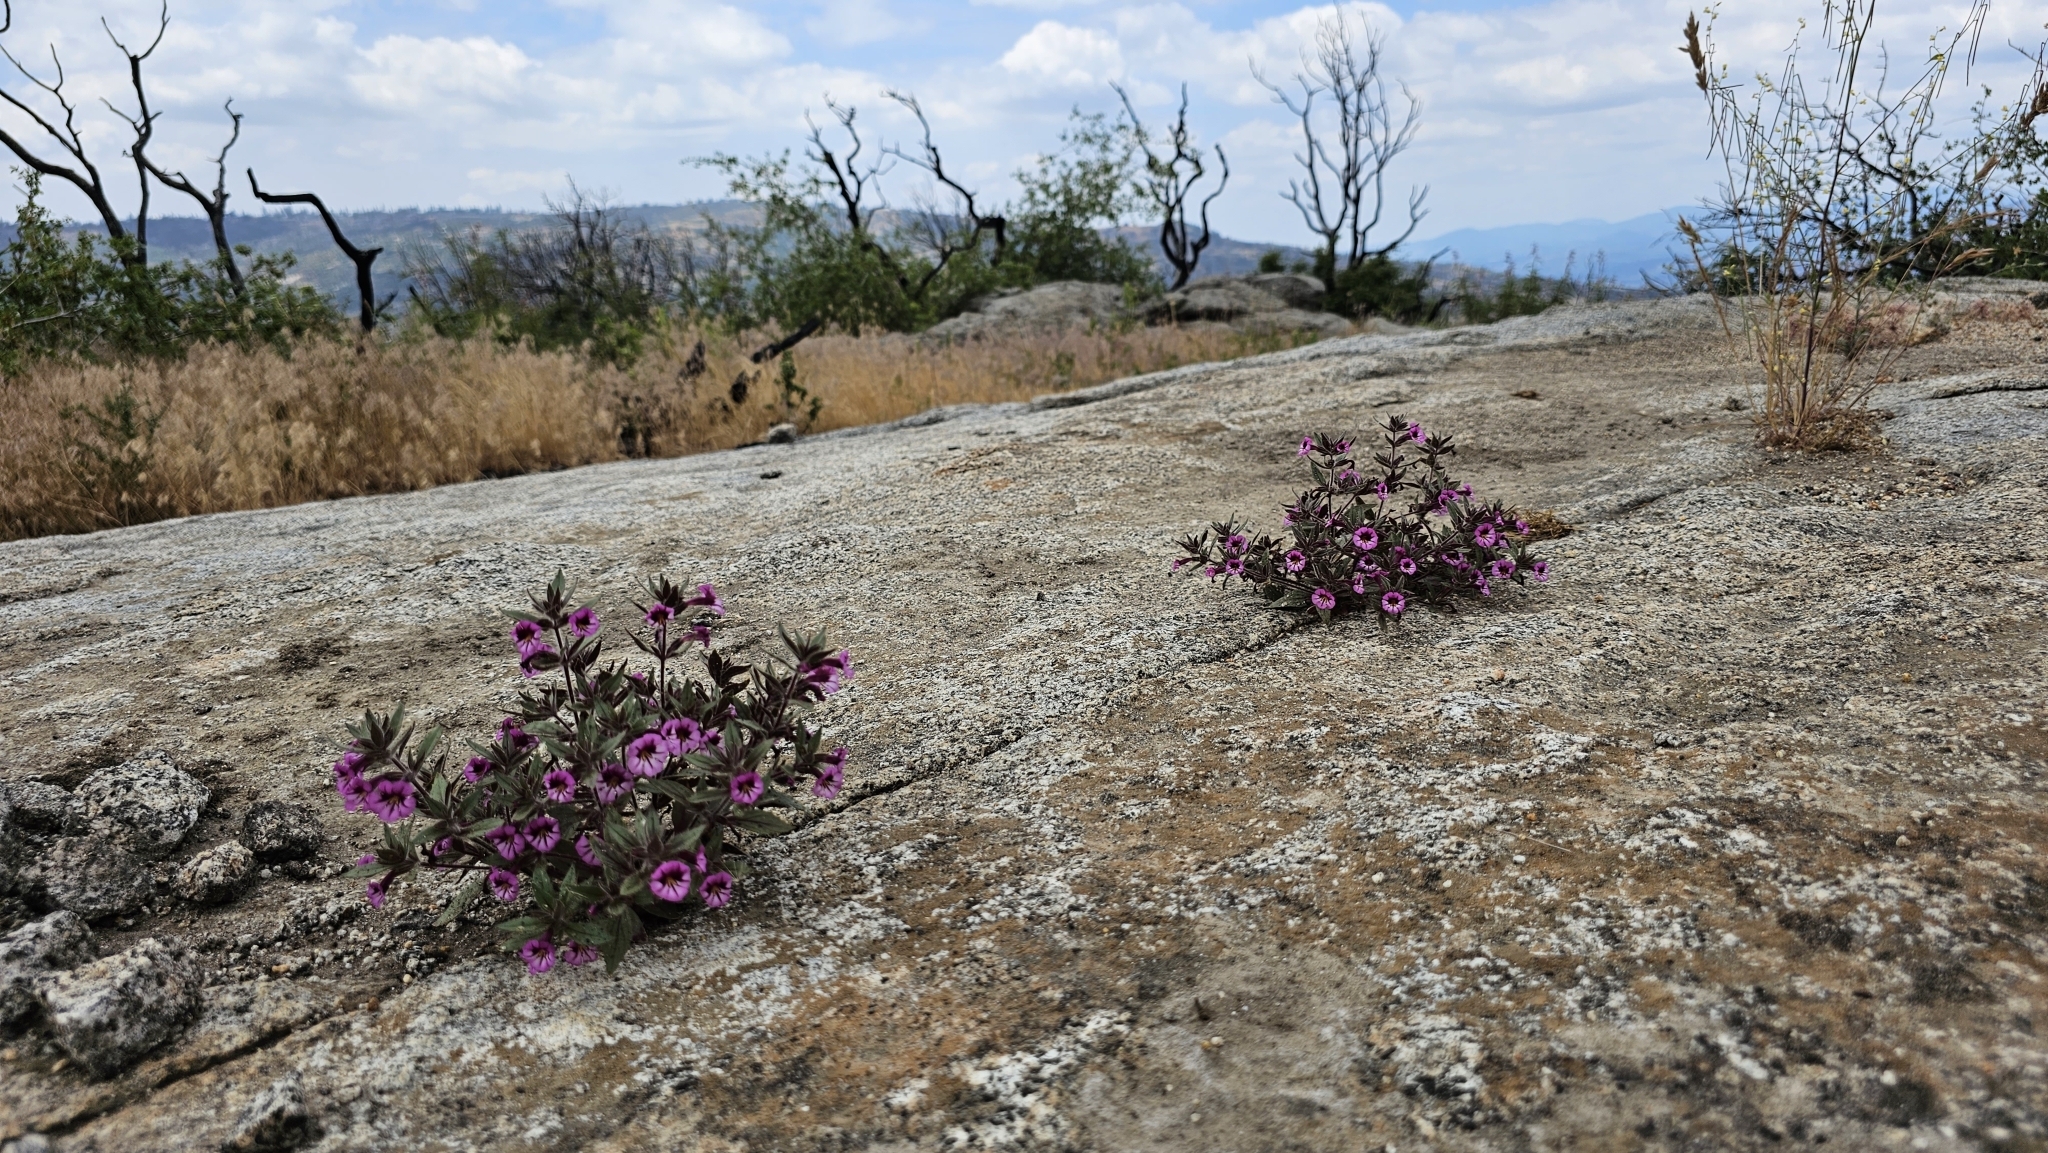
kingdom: Plantae
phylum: Tracheophyta
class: Magnoliopsida
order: Lamiales
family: Phrymaceae
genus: Diplacus
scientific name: Diplacus graniticola
